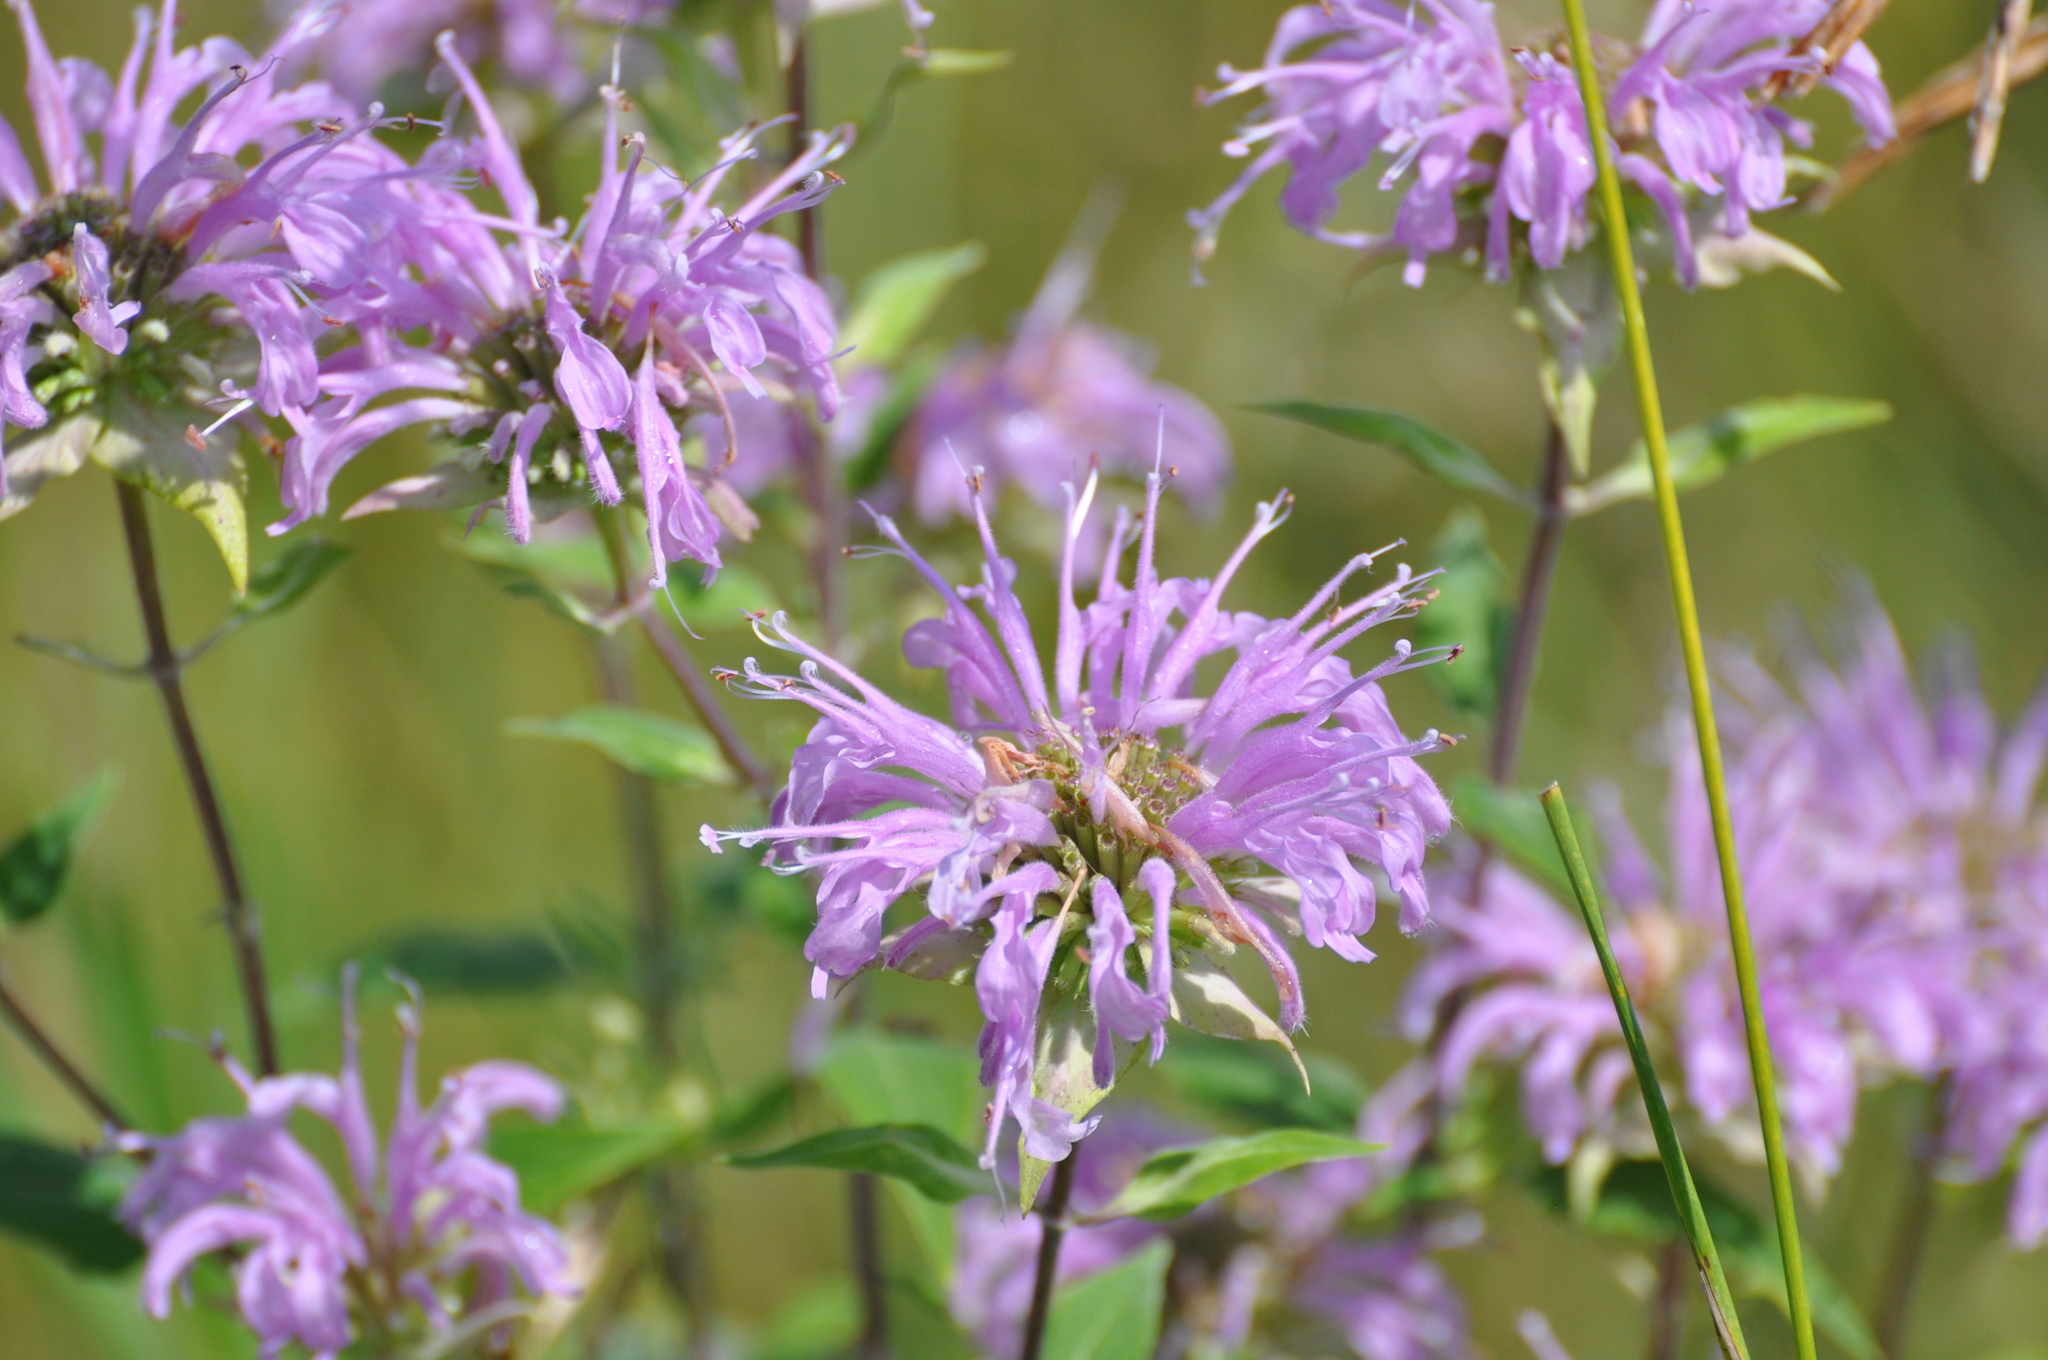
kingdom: Plantae
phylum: Tracheophyta
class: Magnoliopsida
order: Lamiales
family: Lamiaceae
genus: Monarda
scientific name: Monarda fistulosa
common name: Purple beebalm
